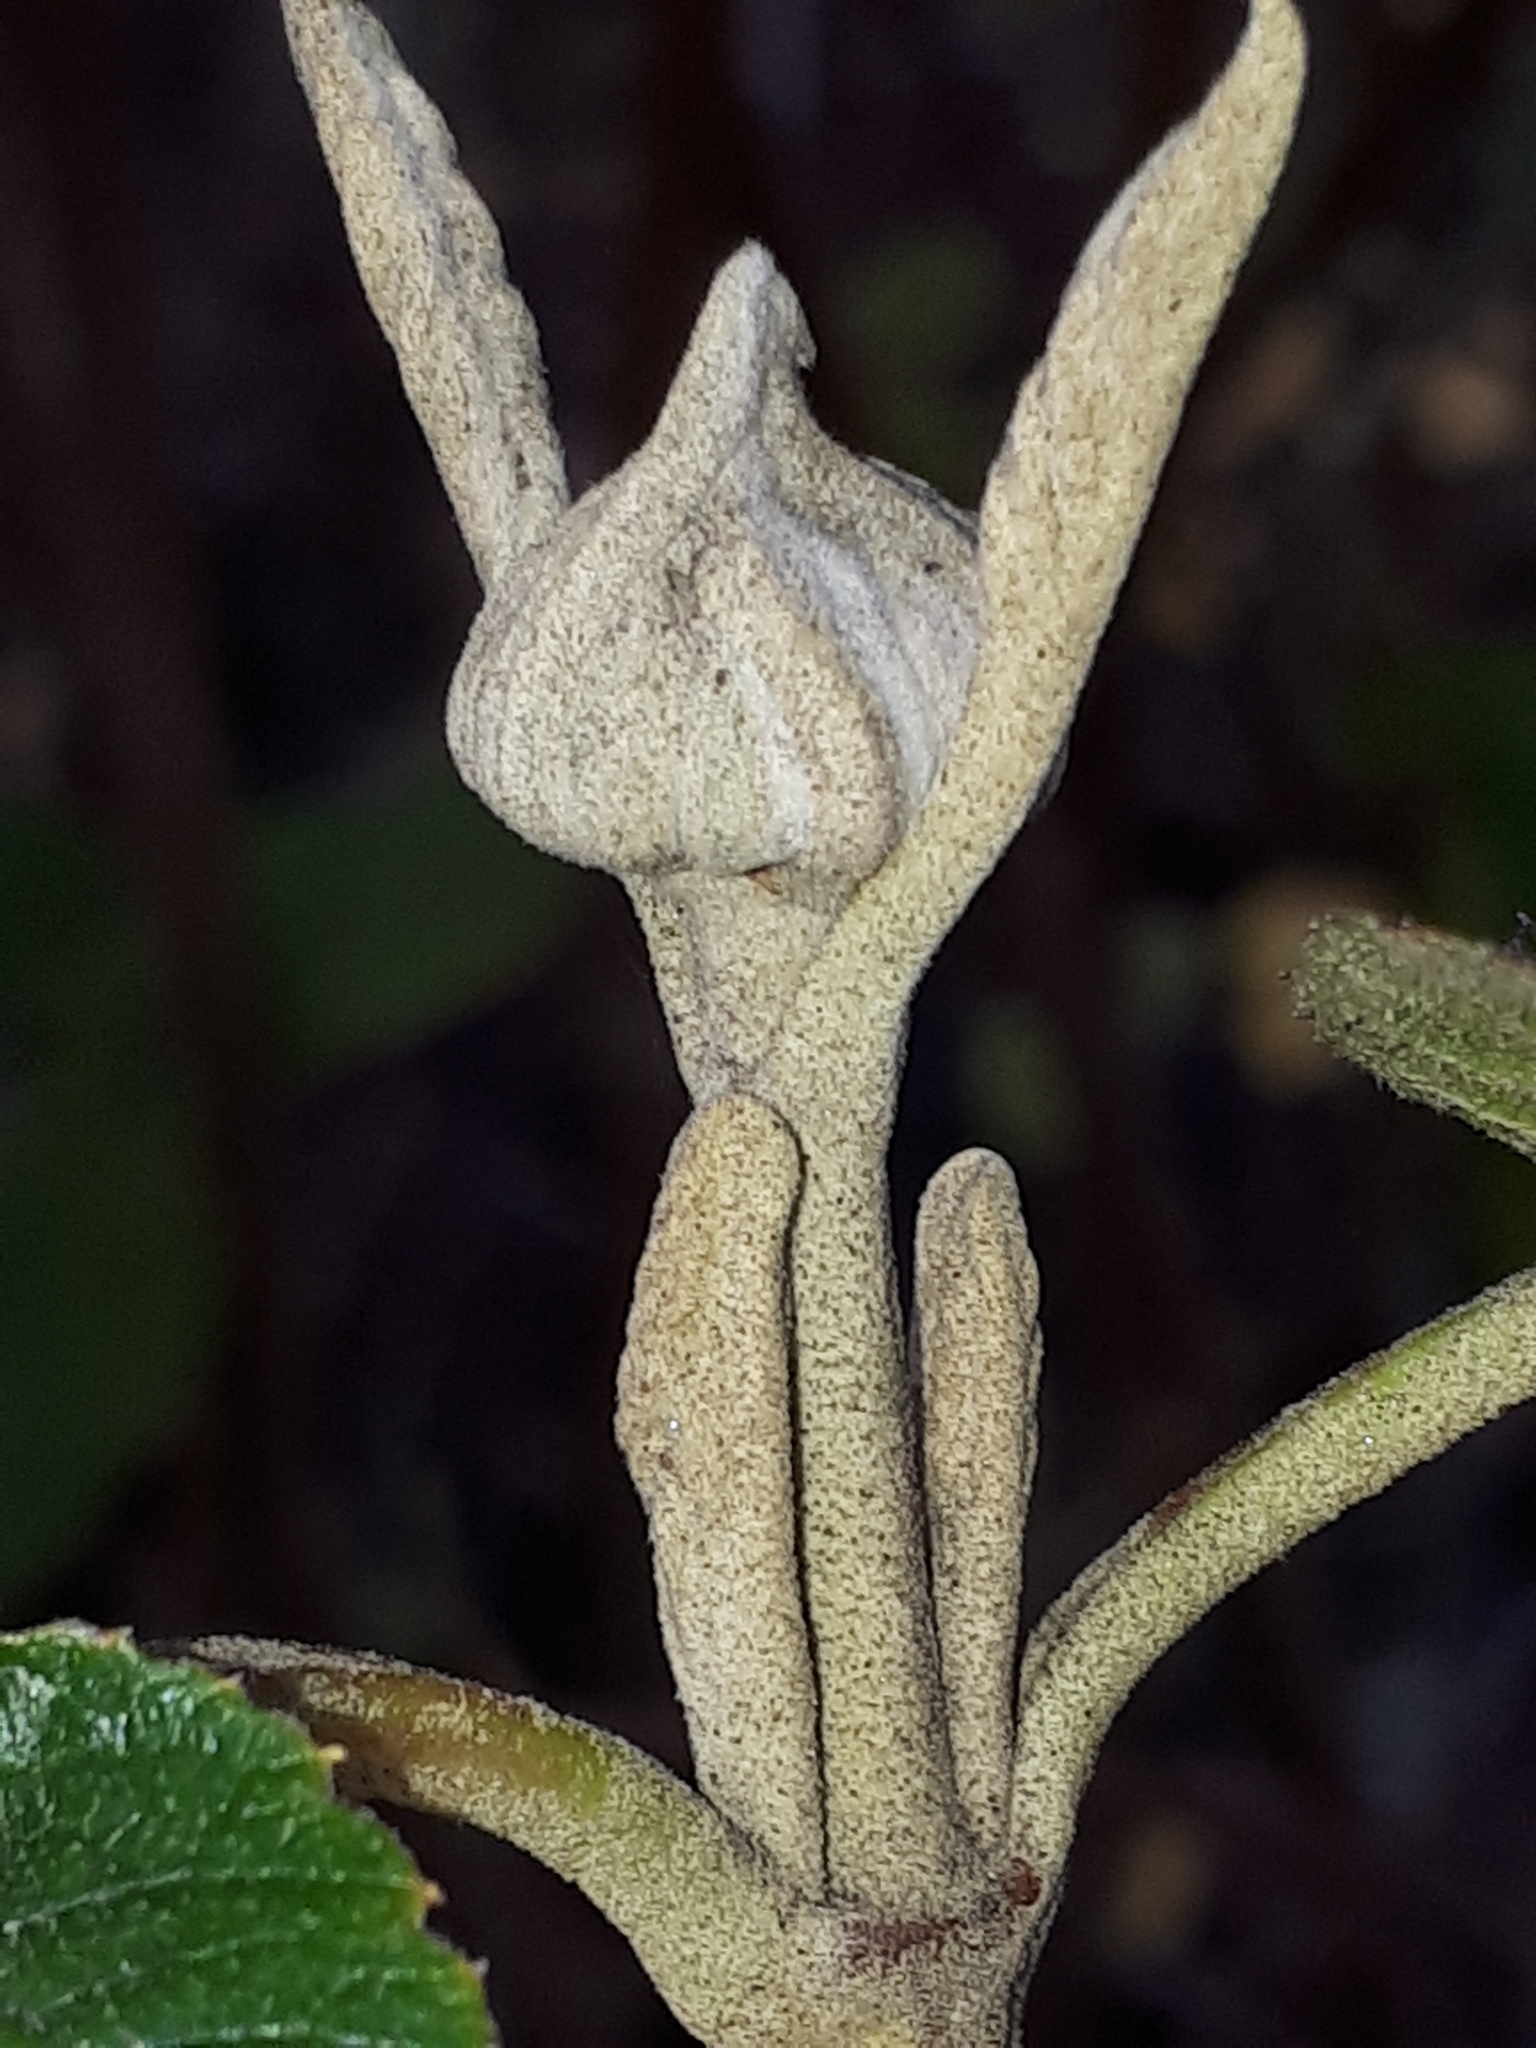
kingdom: Plantae
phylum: Tracheophyta
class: Magnoliopsida
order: Dipsacales
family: Viburnaceae
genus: Viburnum
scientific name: Viburnum lantana
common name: Wayfaring tree
